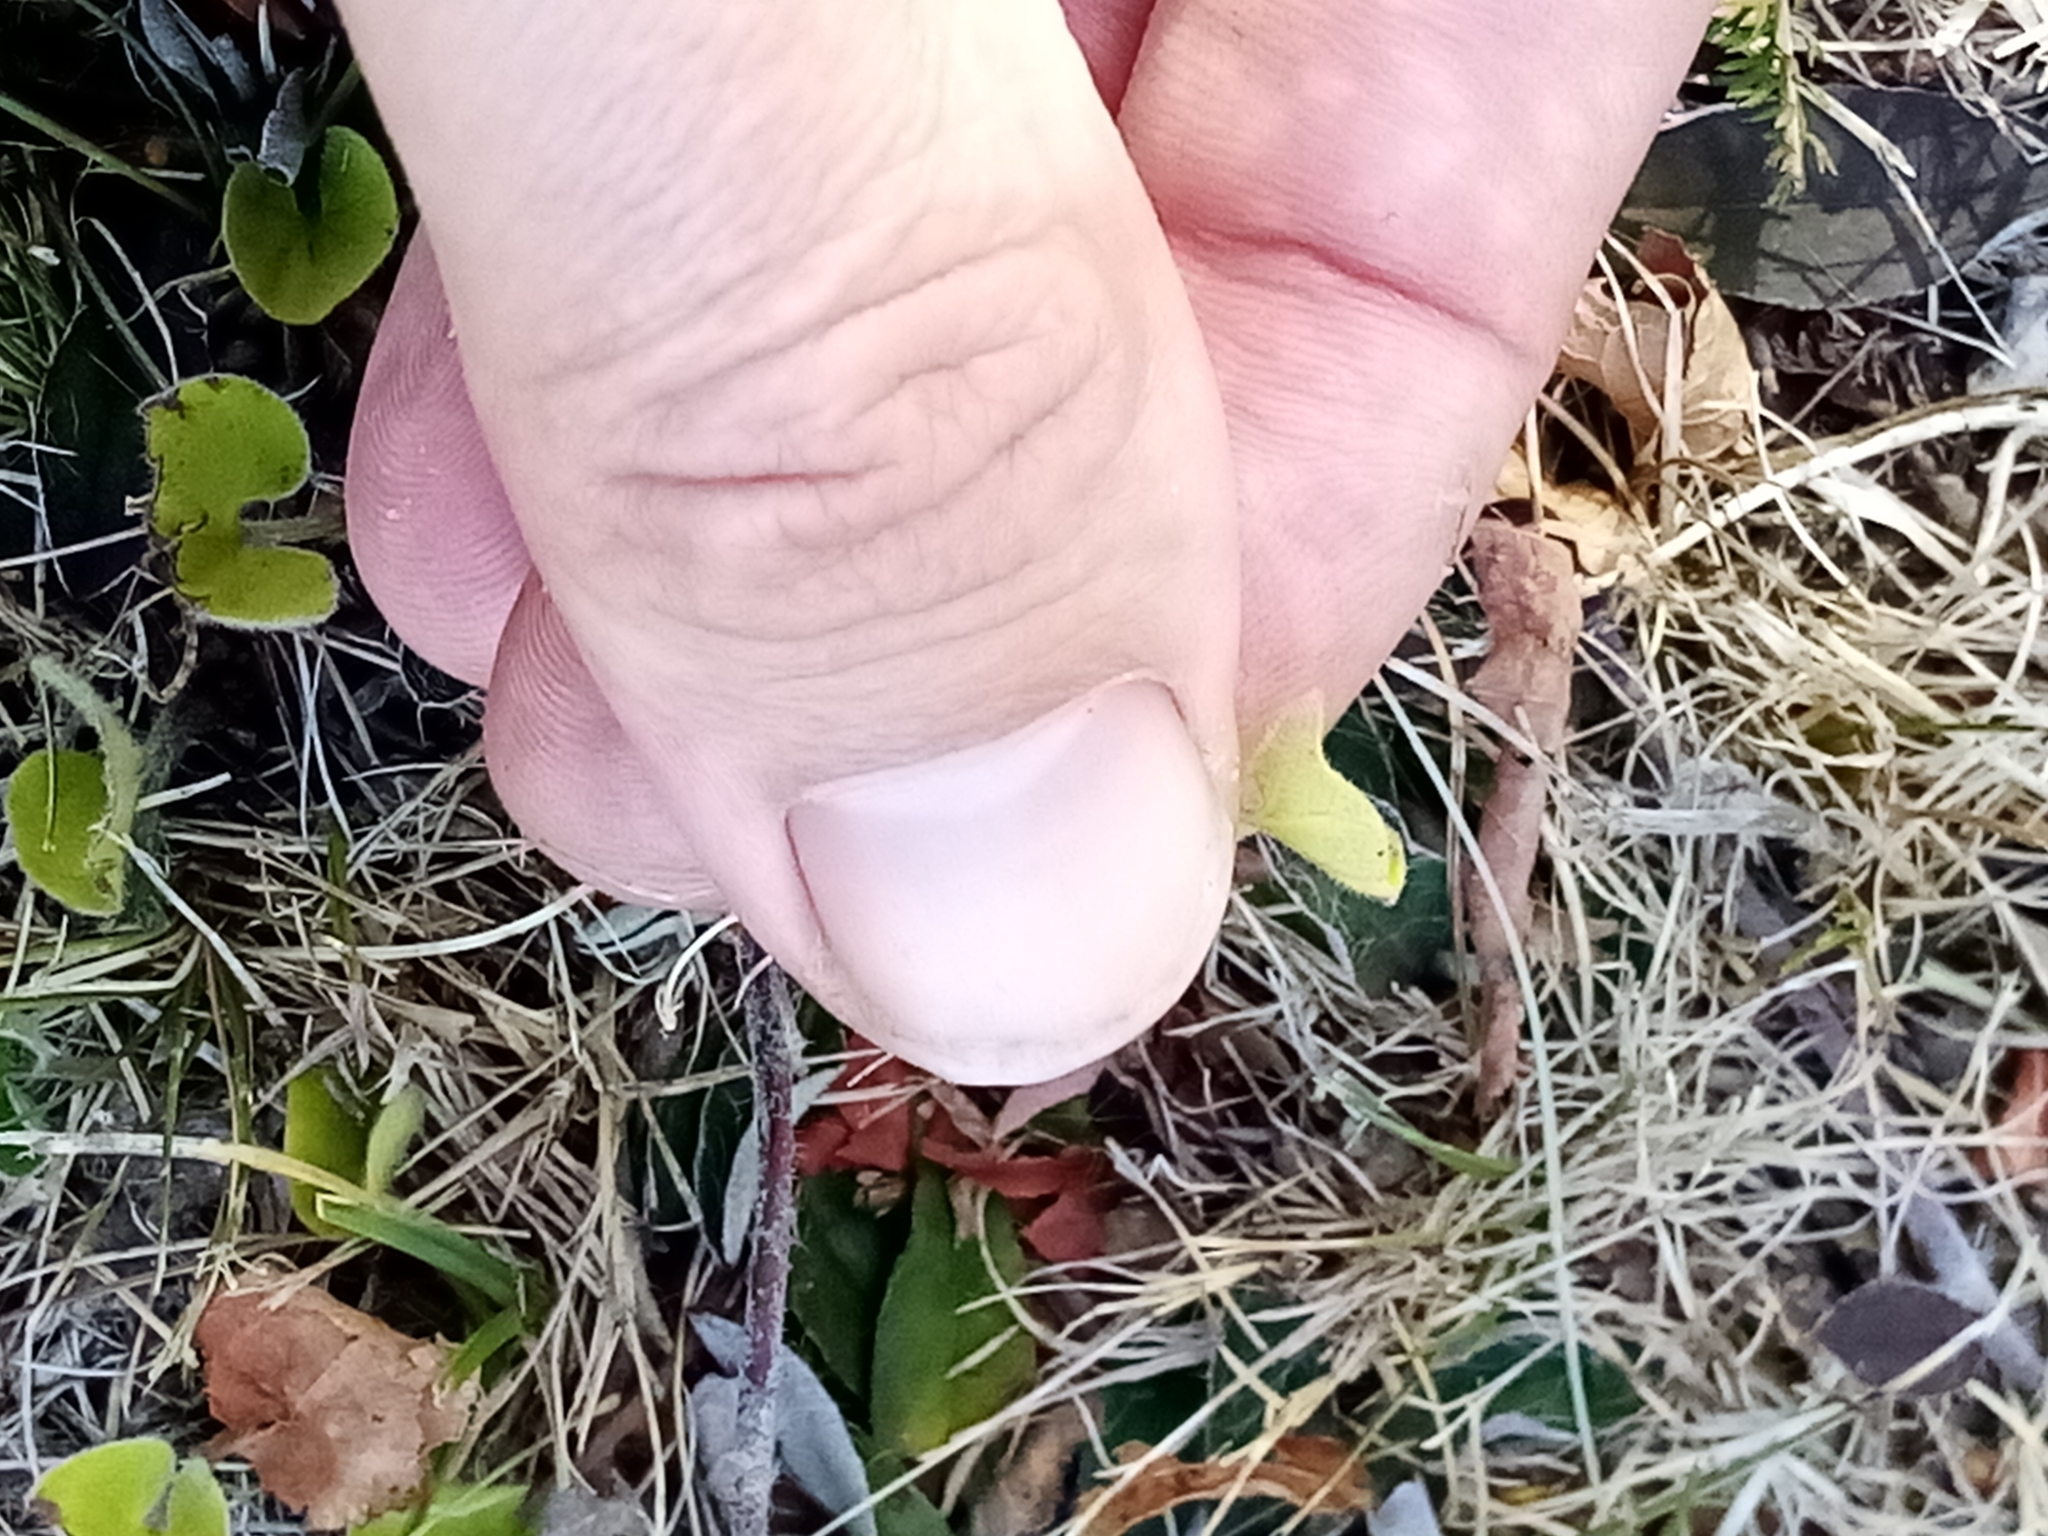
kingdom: Plantae
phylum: Tracheophyta
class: Magnoliopsida
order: Solanales
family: Convolvulaceae
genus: Dichondra
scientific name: Dichondra repens
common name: Kidneyweed
